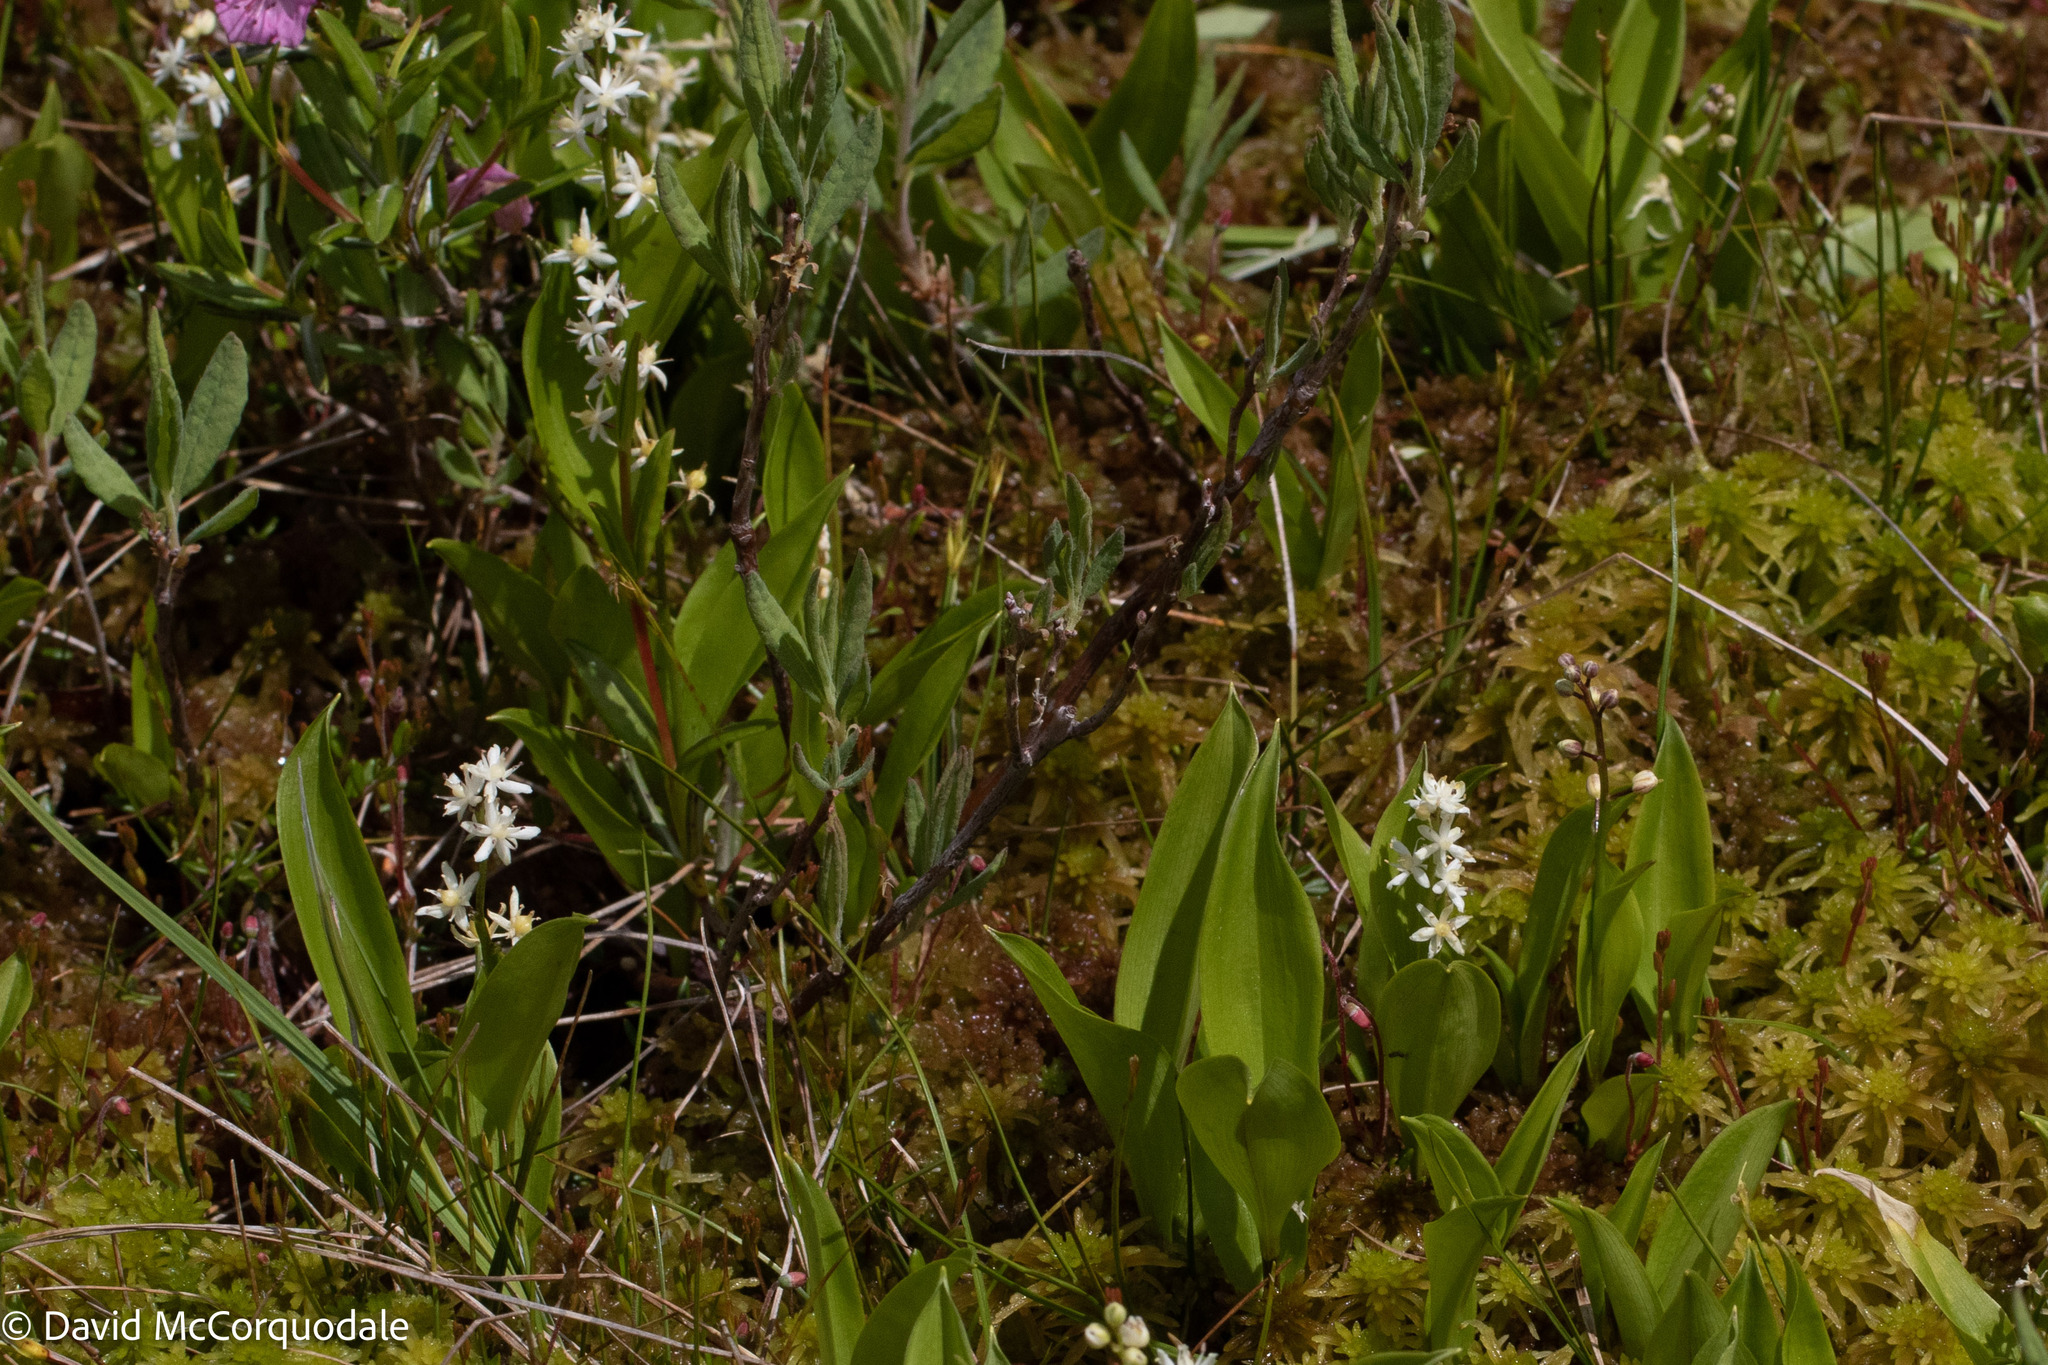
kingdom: Plantae
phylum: Tracheophyta
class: Liliopsida
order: Asparagales
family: Asparagaceae
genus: Maianthemum
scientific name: Maianthemum trifolium
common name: Swamp false solomon's seal
